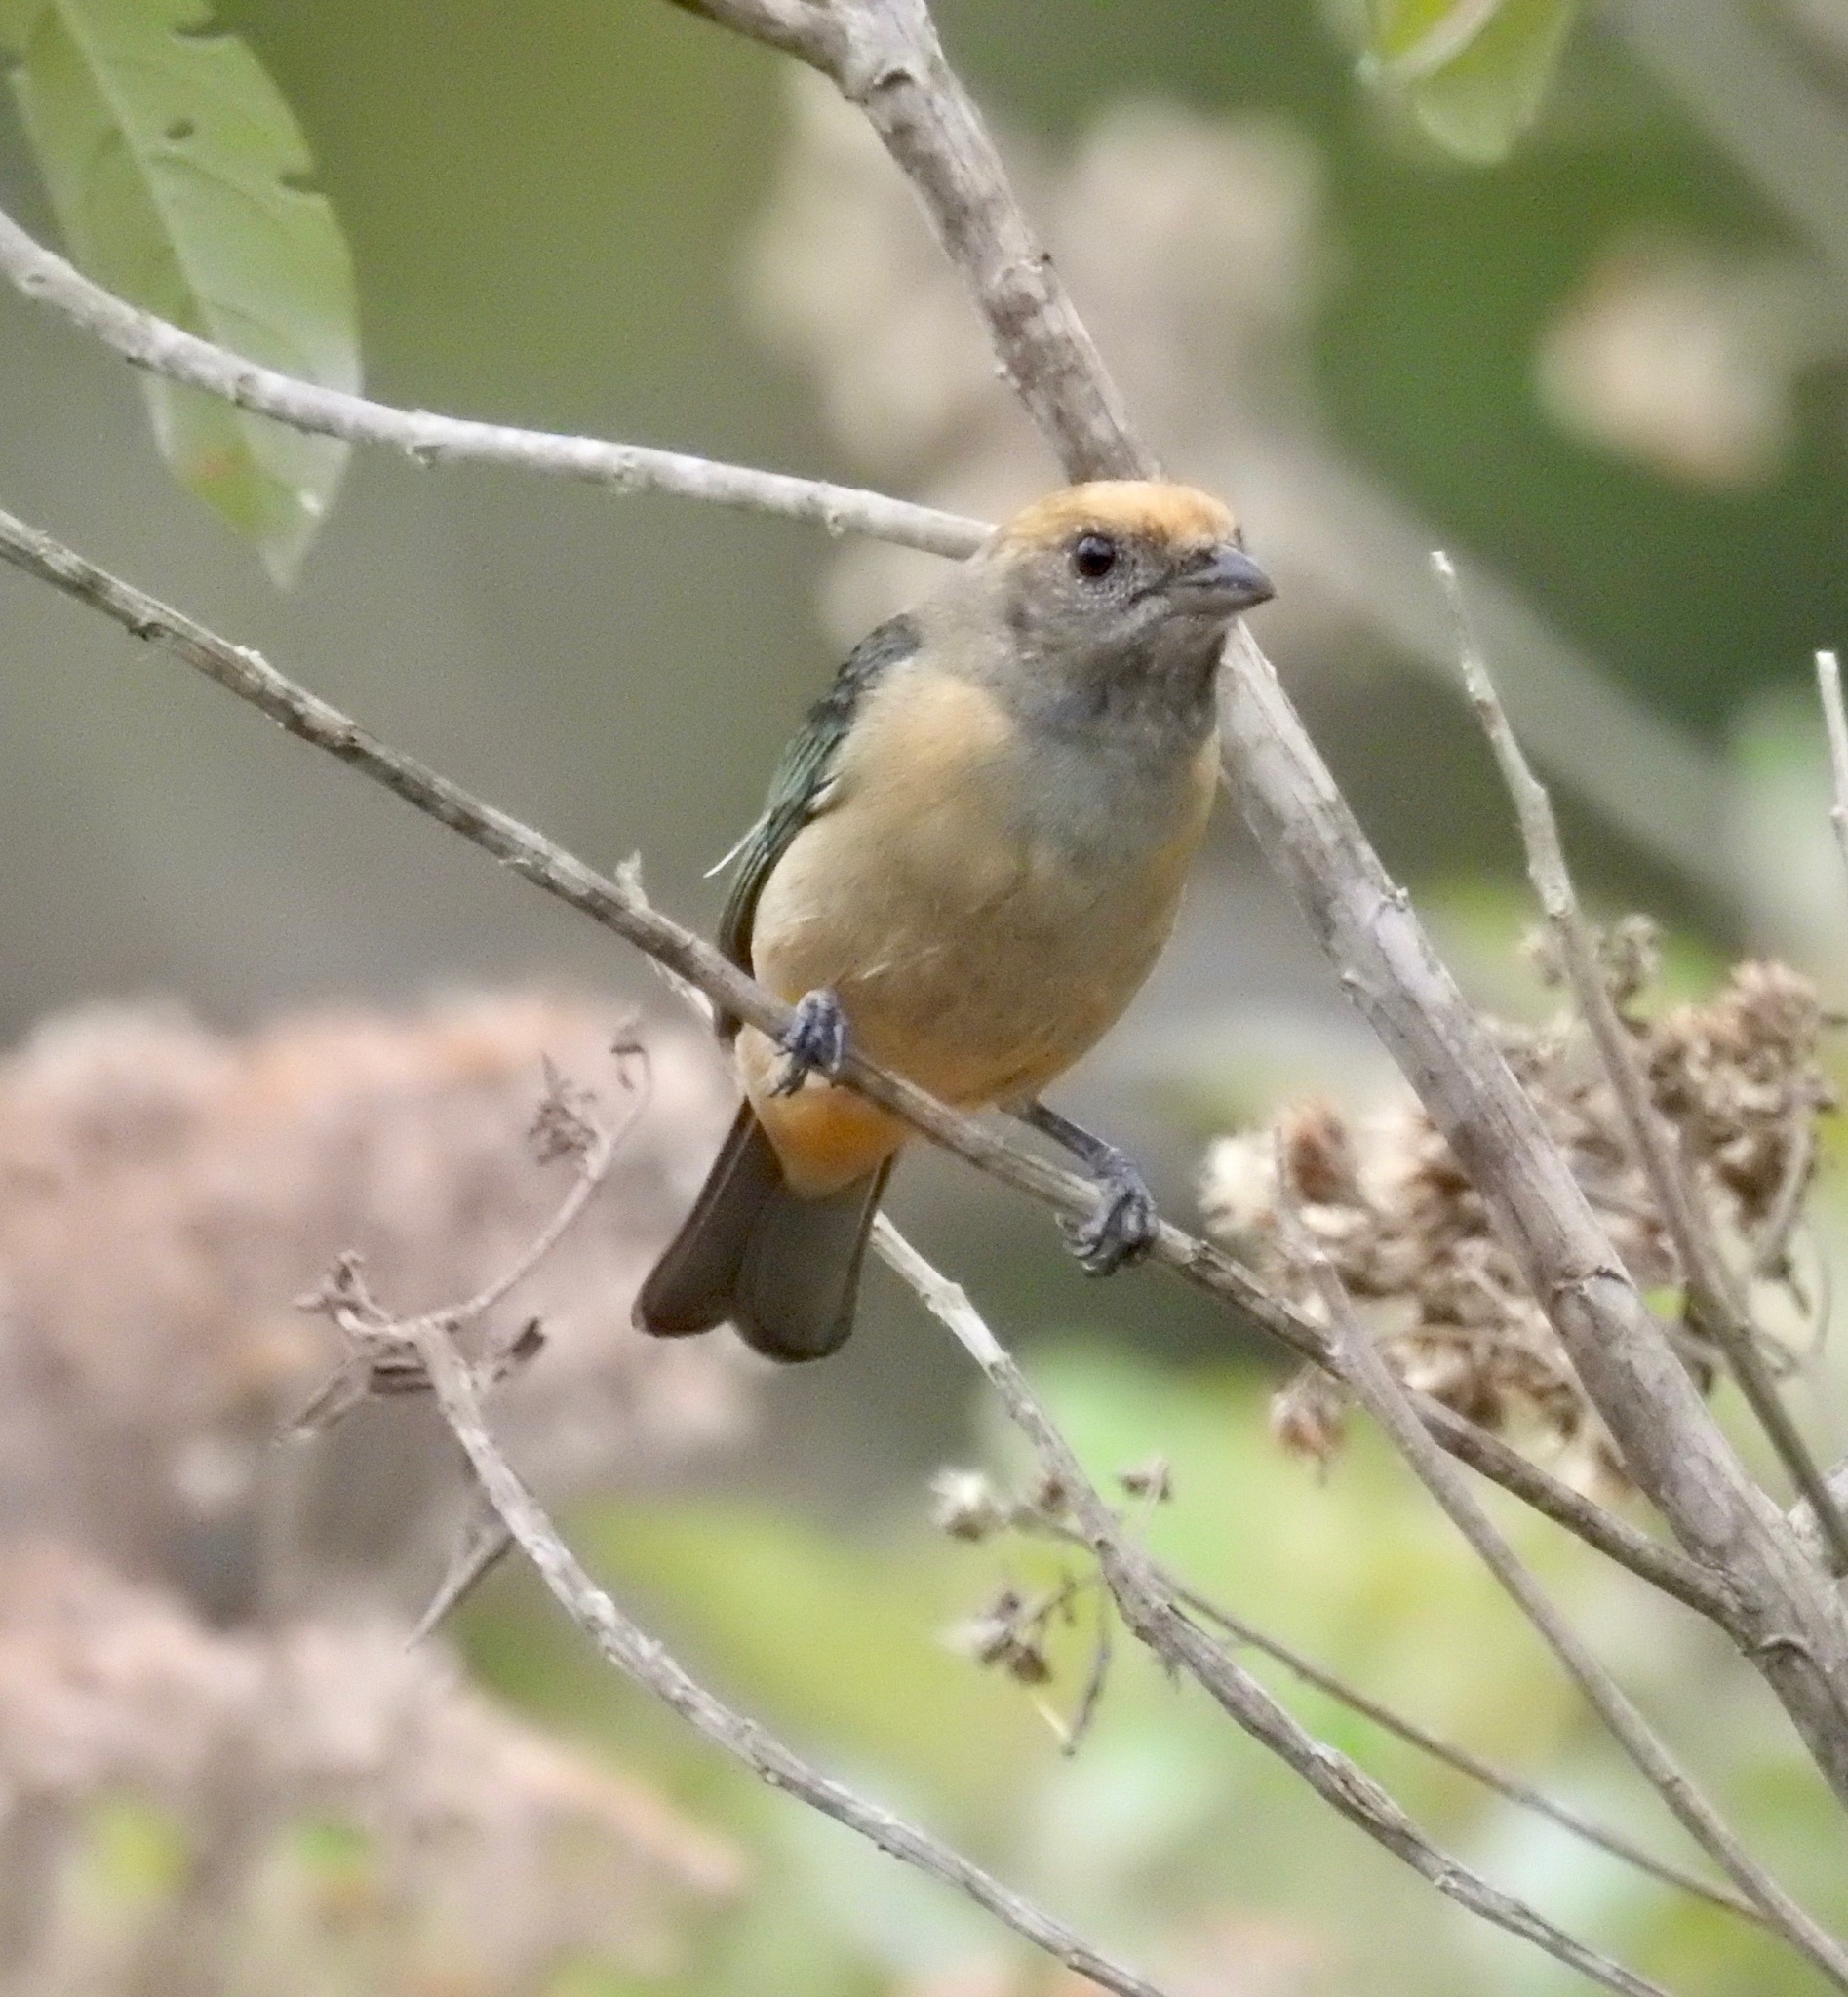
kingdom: Animalia
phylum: Chordata
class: Aves
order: Passeriformes
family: Thraupidae
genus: Stilpnia
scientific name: Stilpnia cayana
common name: Burnished-buff tanager
